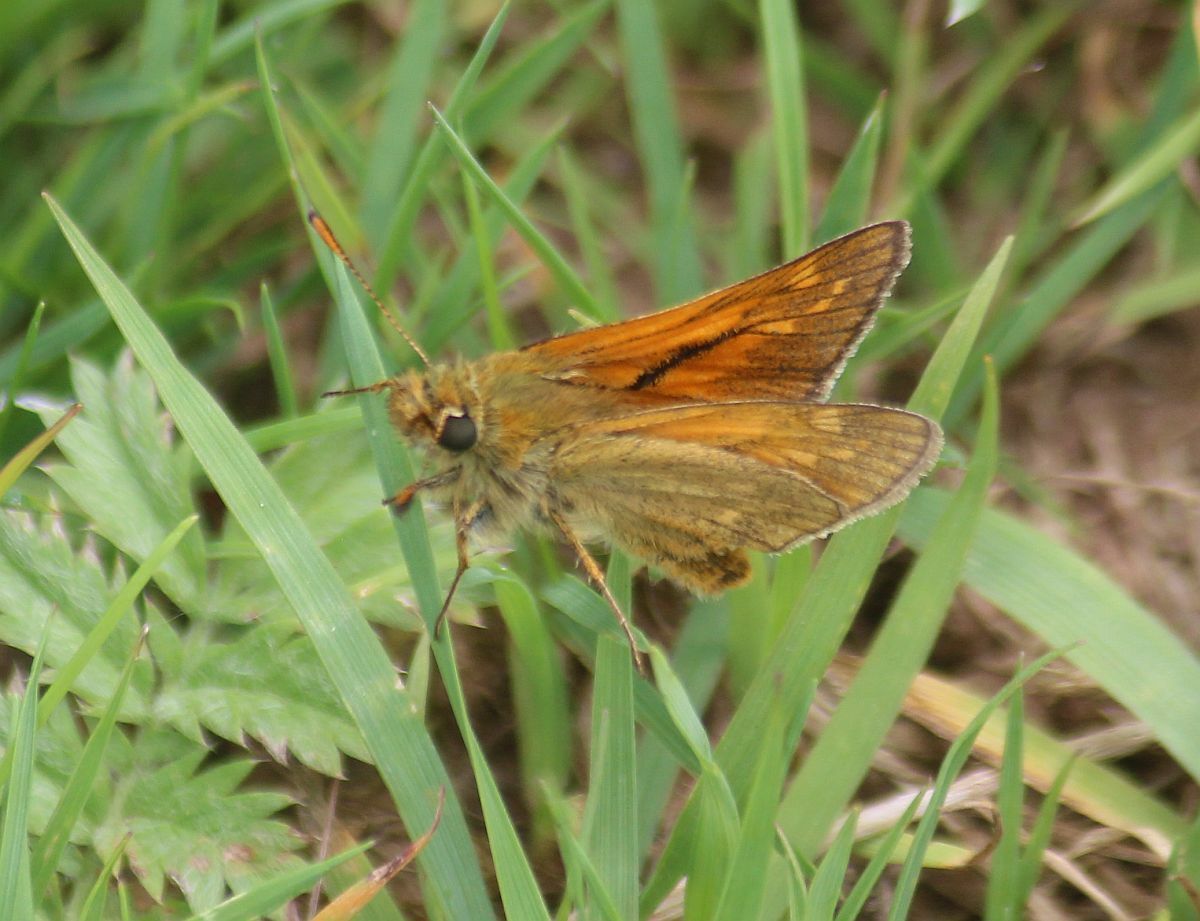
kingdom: Animalia
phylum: Arthropoda
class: Insecta
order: Lepidoptera
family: Hesperiidae
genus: Ochlodes
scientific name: Ochlodes venata
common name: Large skipper
